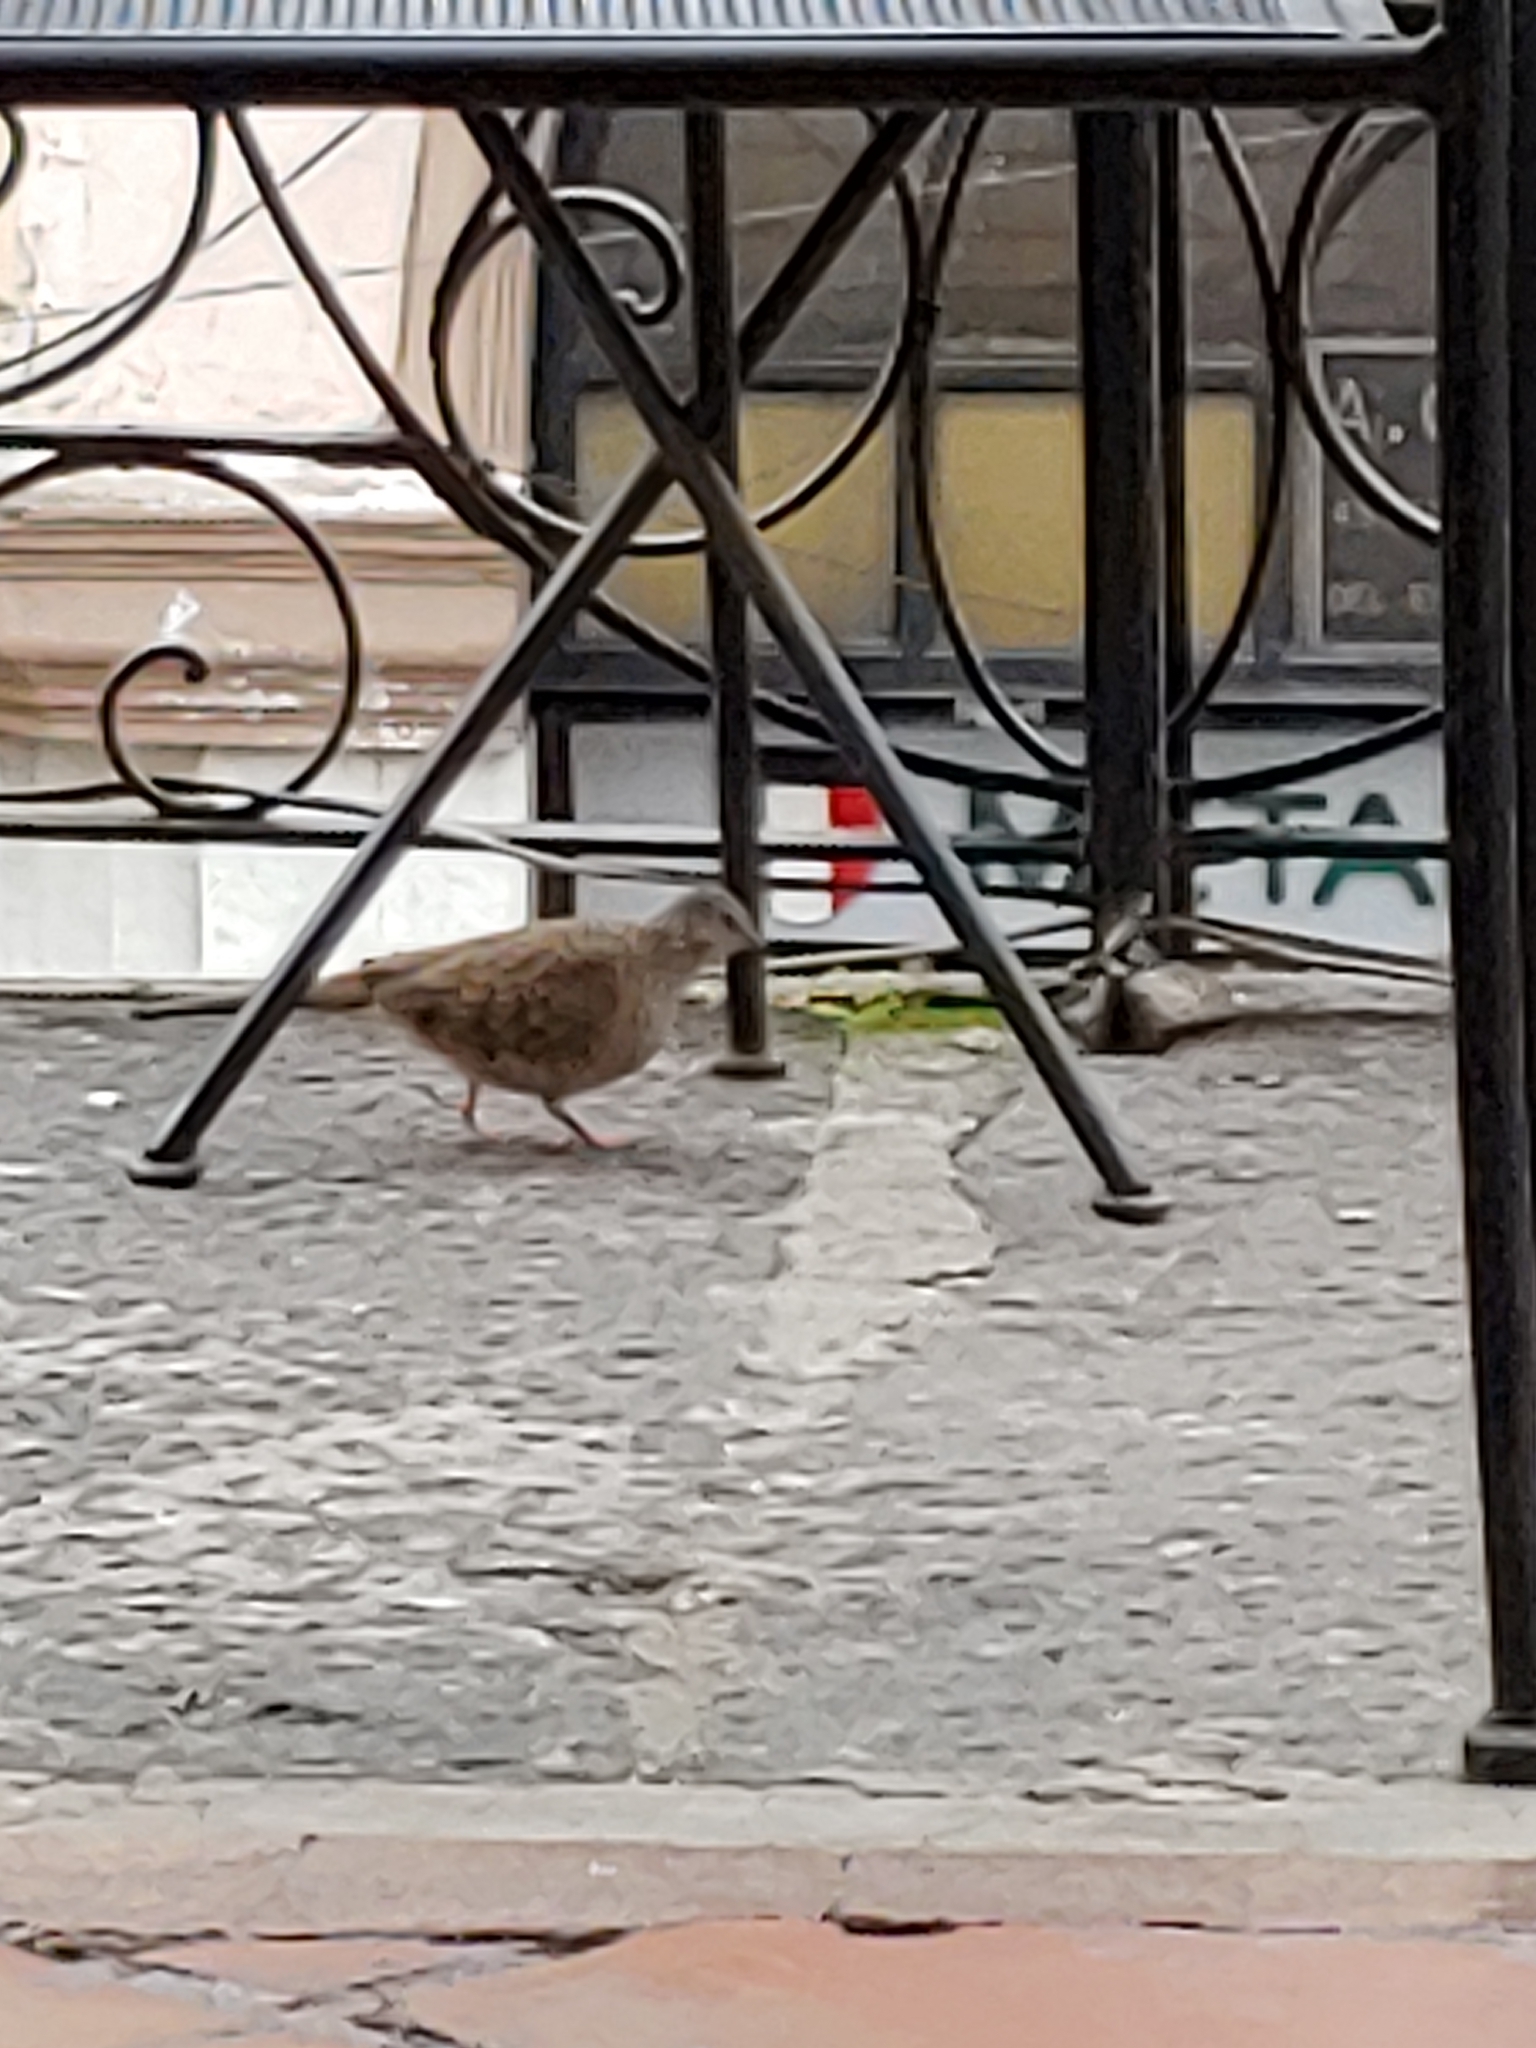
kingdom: Animalia
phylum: Chordata
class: Aves
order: Columbiformes
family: Columbidae
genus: Columbina
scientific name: Columbina inca
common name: Inca dove
